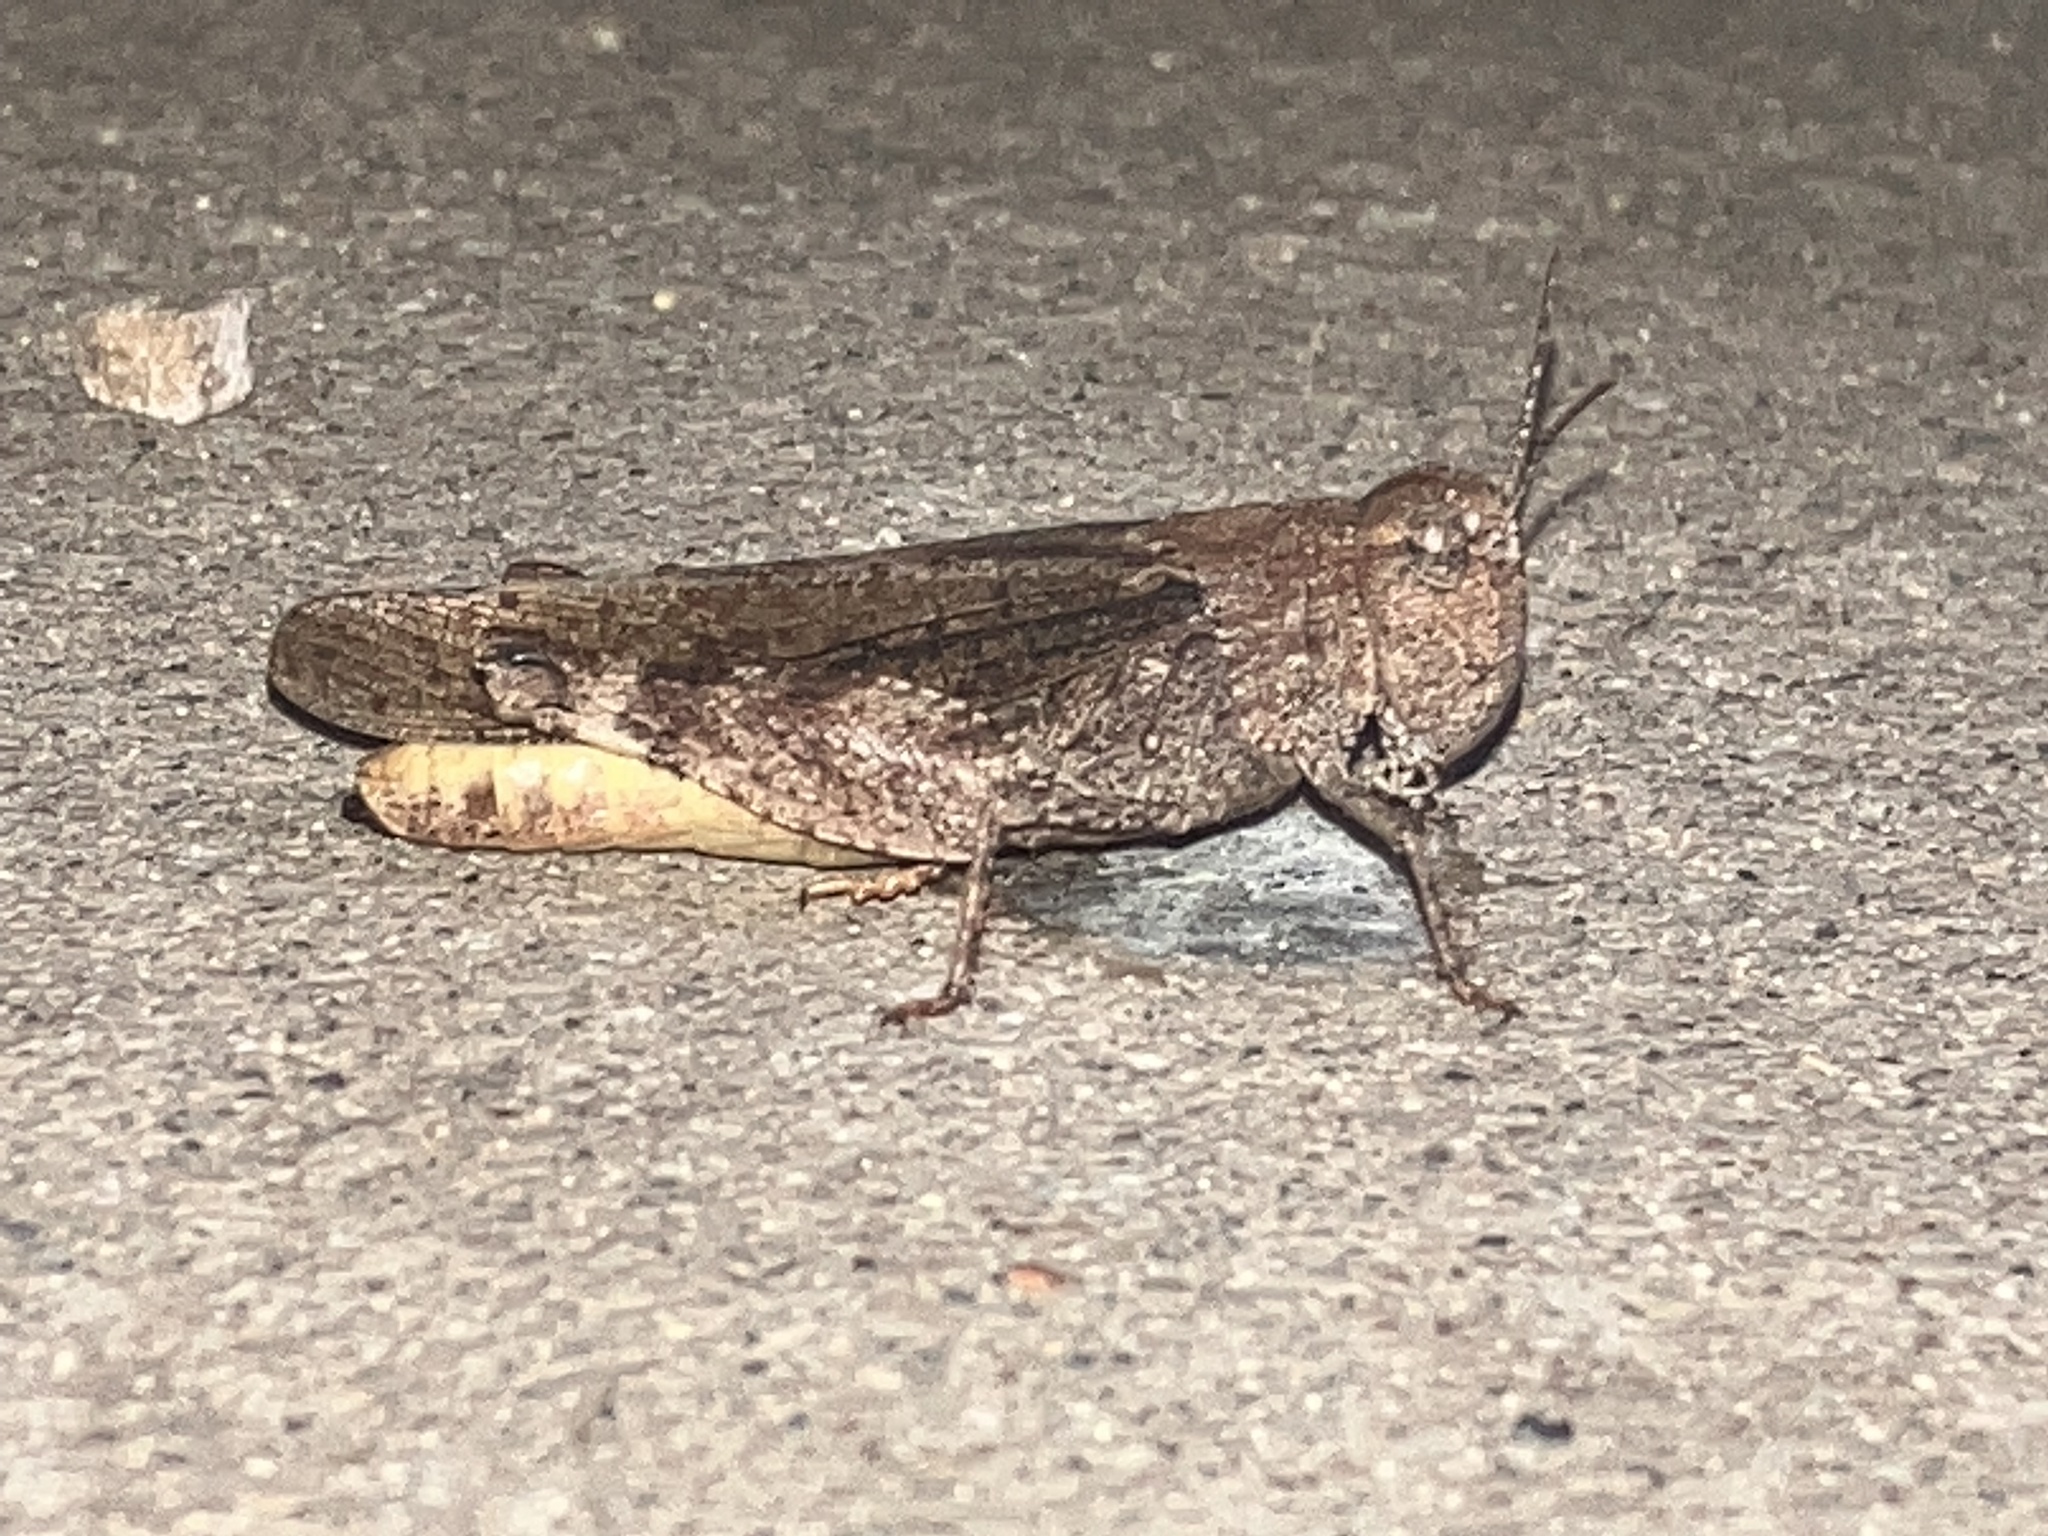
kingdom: Animalia
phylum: Arthropoda
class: Insecta
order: Orthoptera
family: Acrididae
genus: Arphia
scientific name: Arphia conspersa
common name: Speckle-winged rangeland grasshopper
